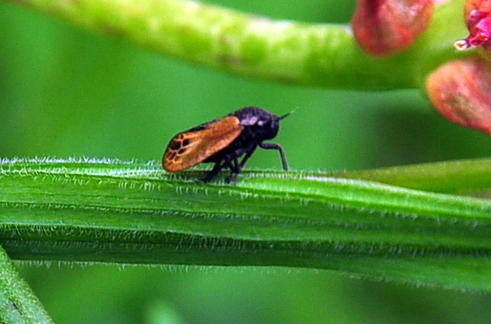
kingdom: Animalia
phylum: Arthropoda
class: Insecta
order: Hemiptera
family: Cercopidae
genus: Rhinaulax
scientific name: Rhinaulax analis
